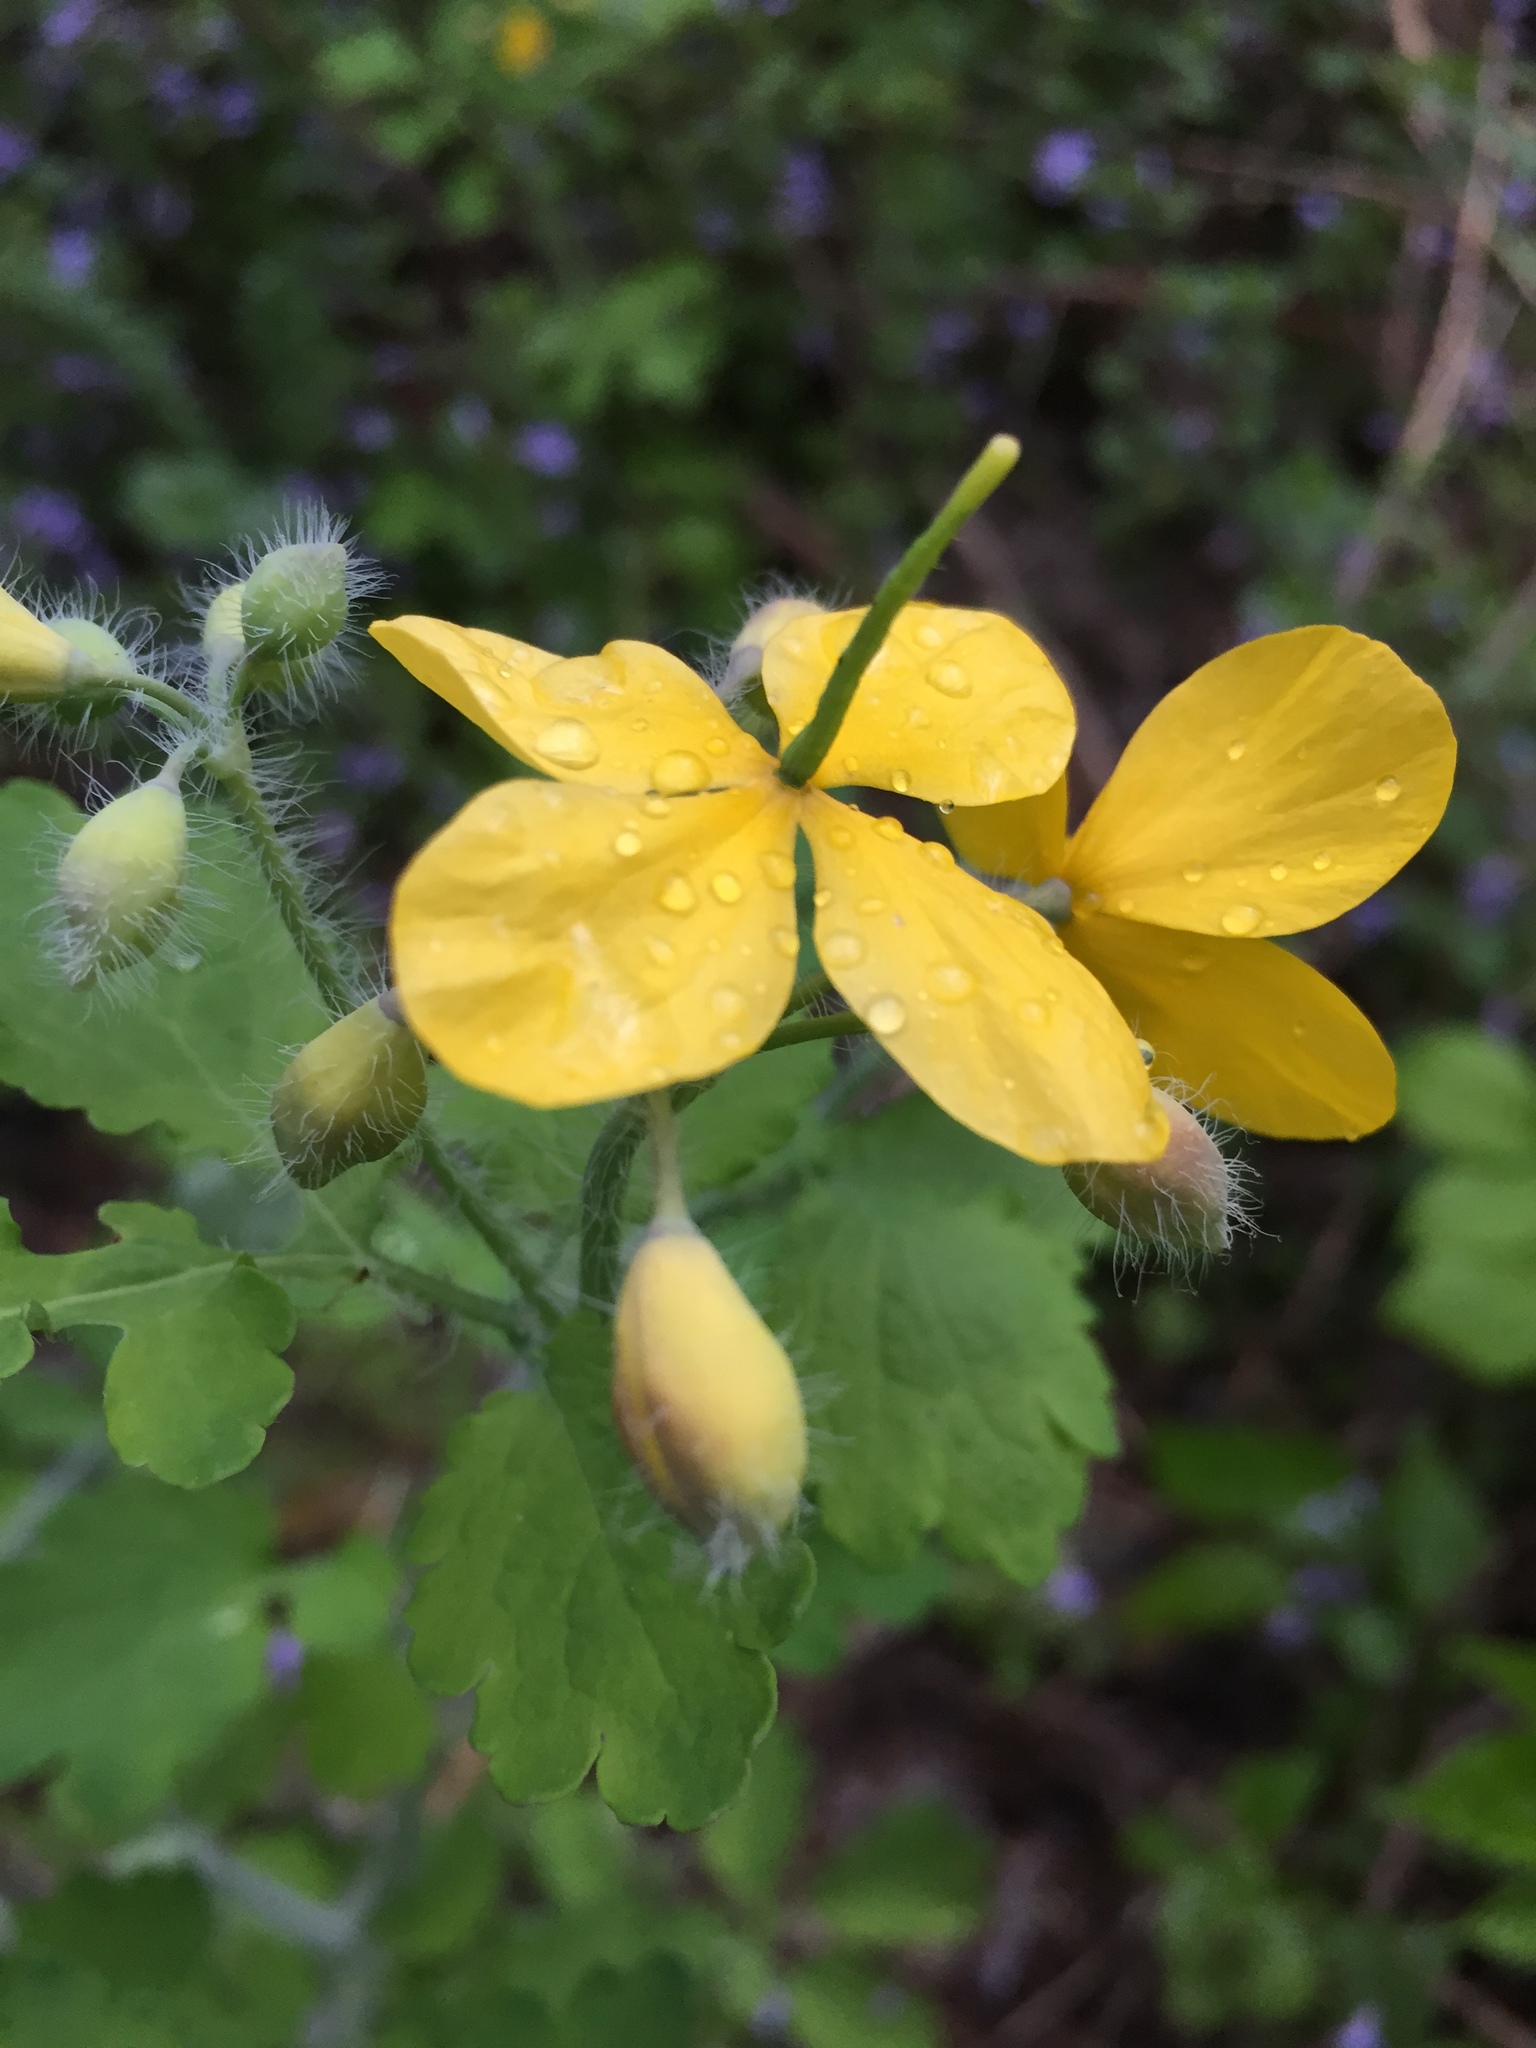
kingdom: Plantae
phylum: Tracheophyta
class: Magnoliopsida
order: Ranunculales
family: Papaveraceae
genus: Chelidonium
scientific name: Chelidonium majus
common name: Greater celandine
